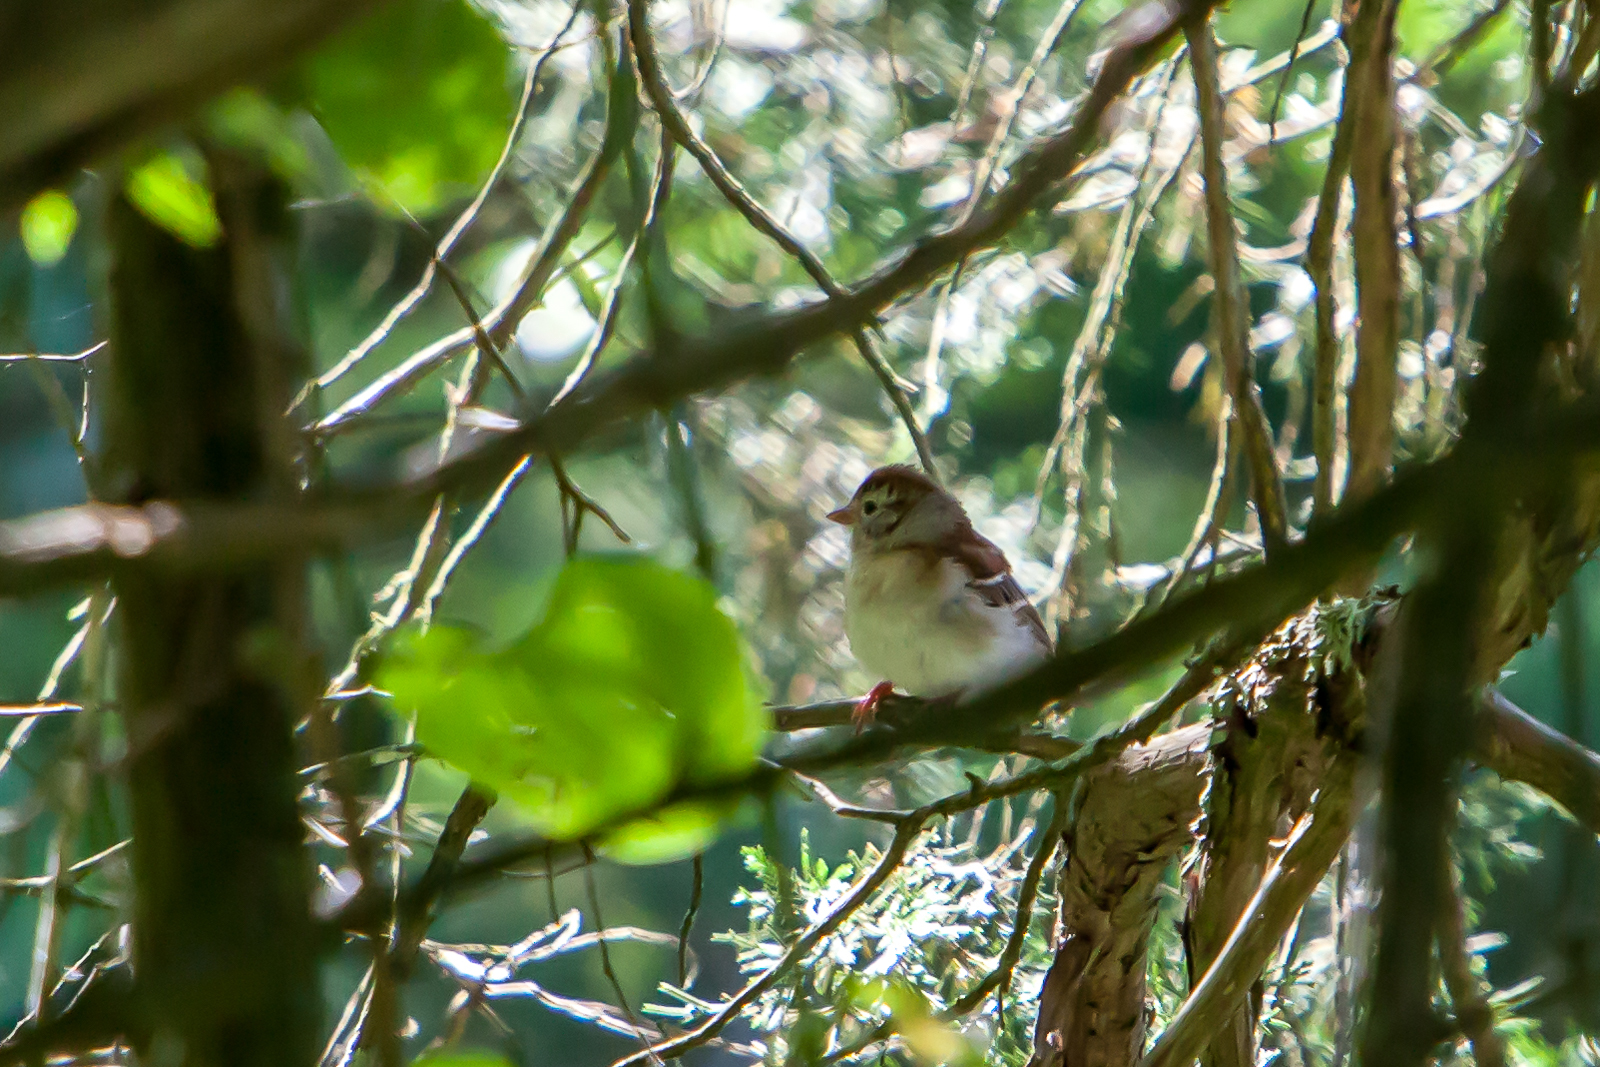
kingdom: Animalia
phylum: Chordata
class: Aves
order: Passeriformes
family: Passerellidae
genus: Spizella
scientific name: Spizella pusilla
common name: Field sparrow
